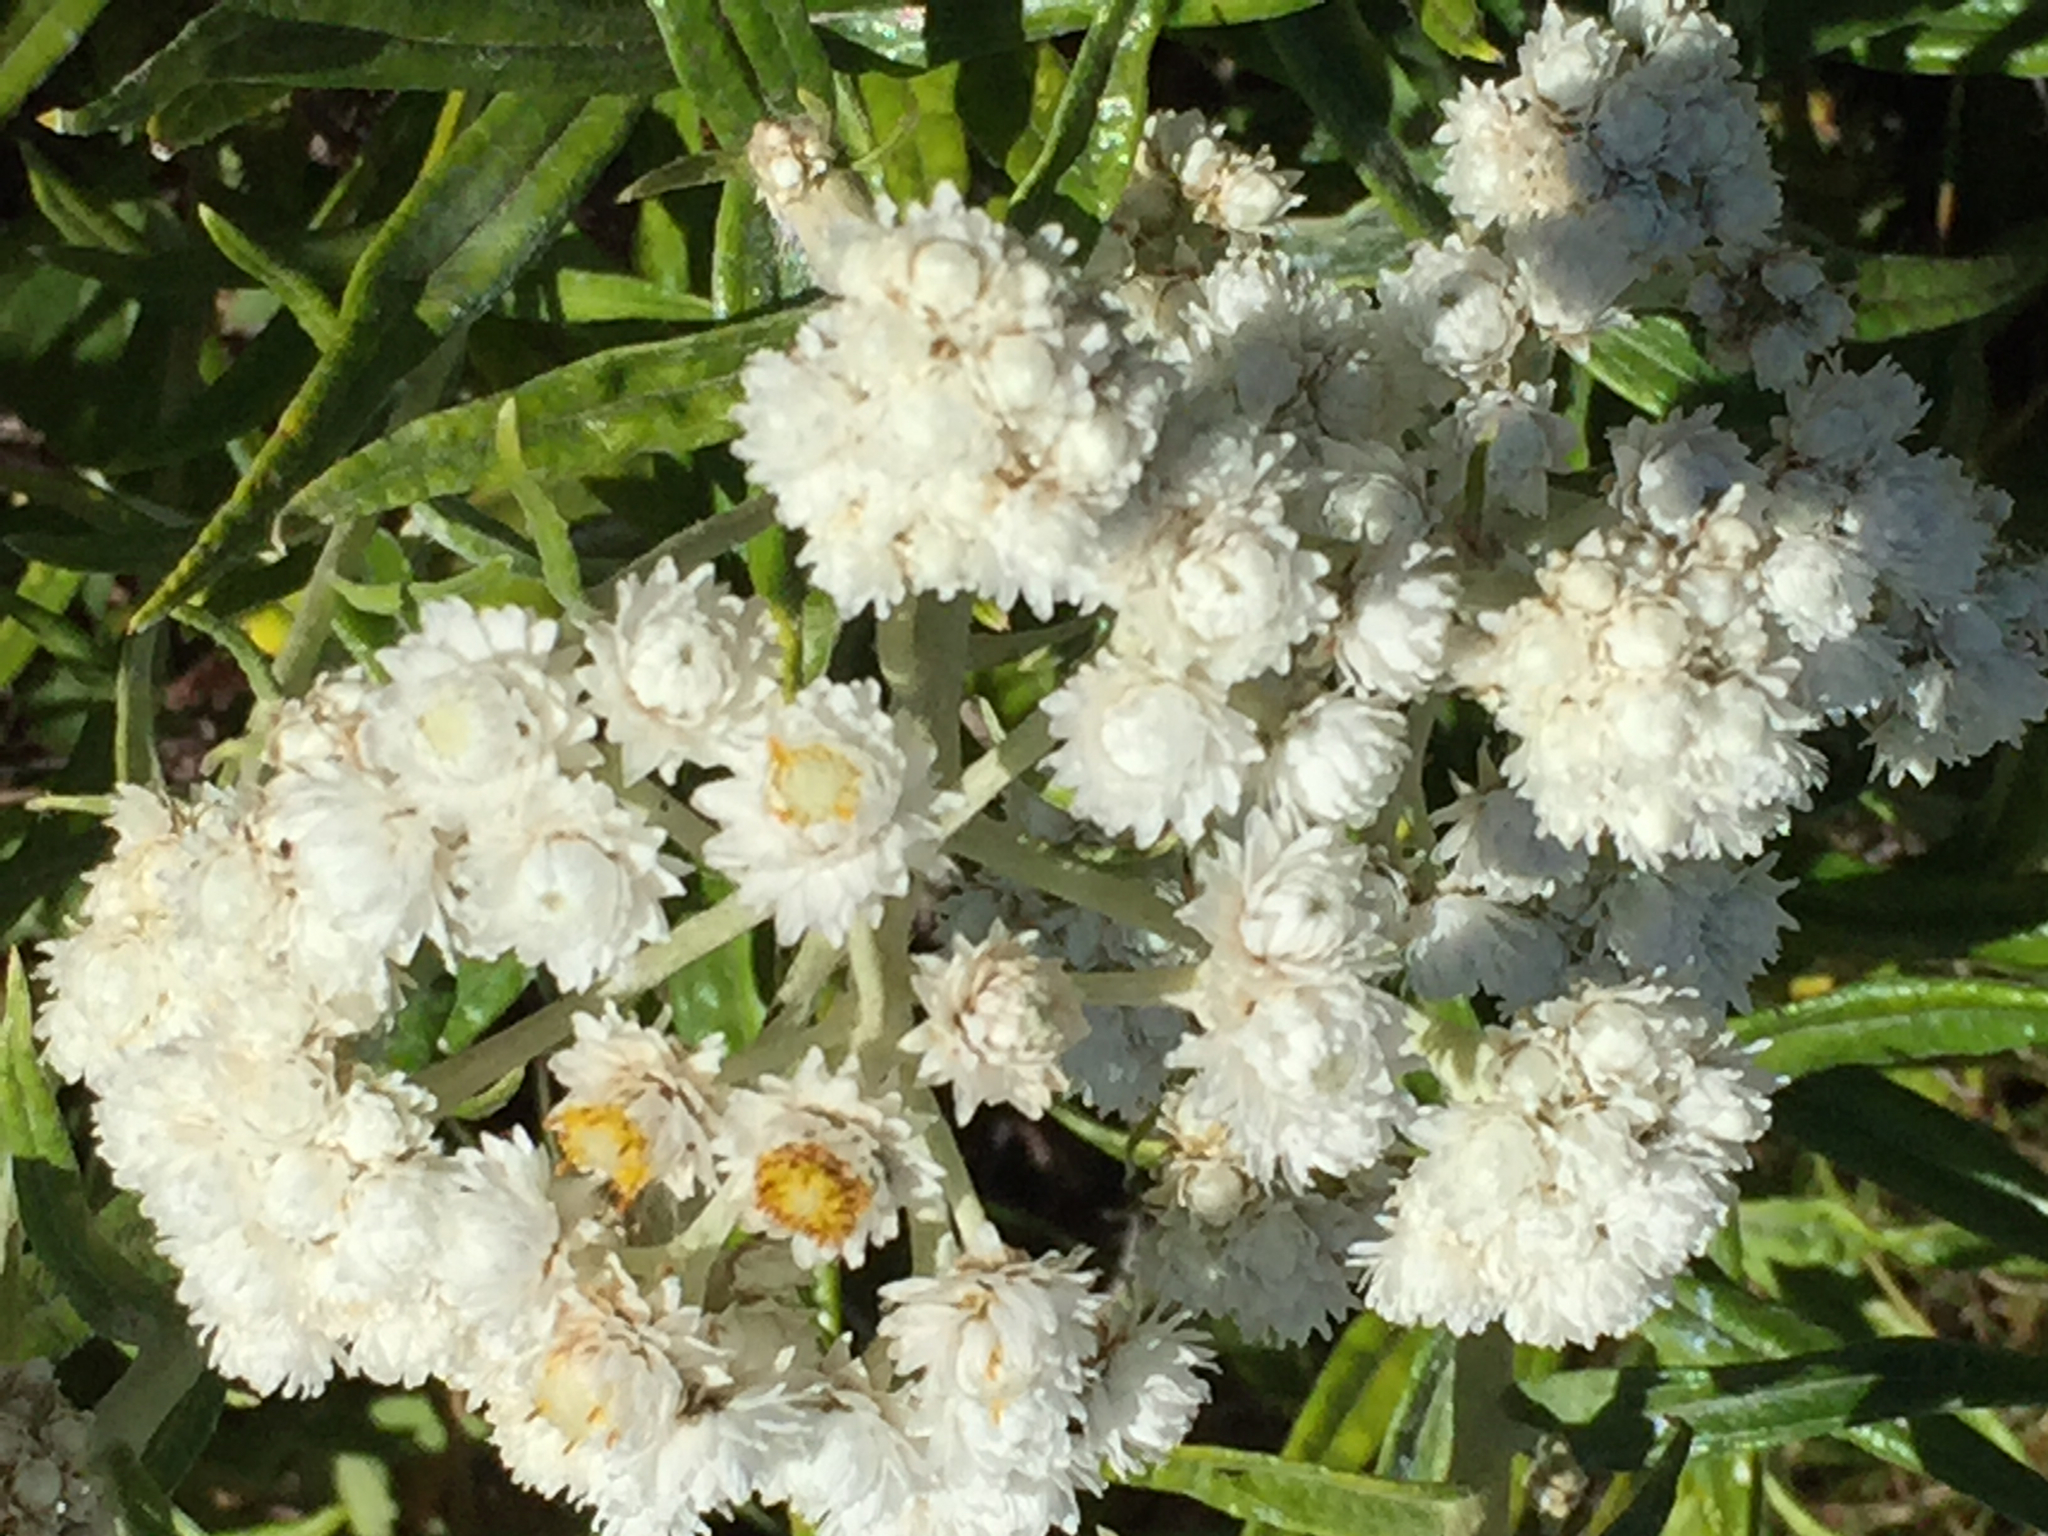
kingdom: Plantae
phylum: Tracheophyta
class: Magnoliopsida
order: Asterales
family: Asteraceae
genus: Anaphalis
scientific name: Anaphalis margaritacea
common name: Pearly everlasting
